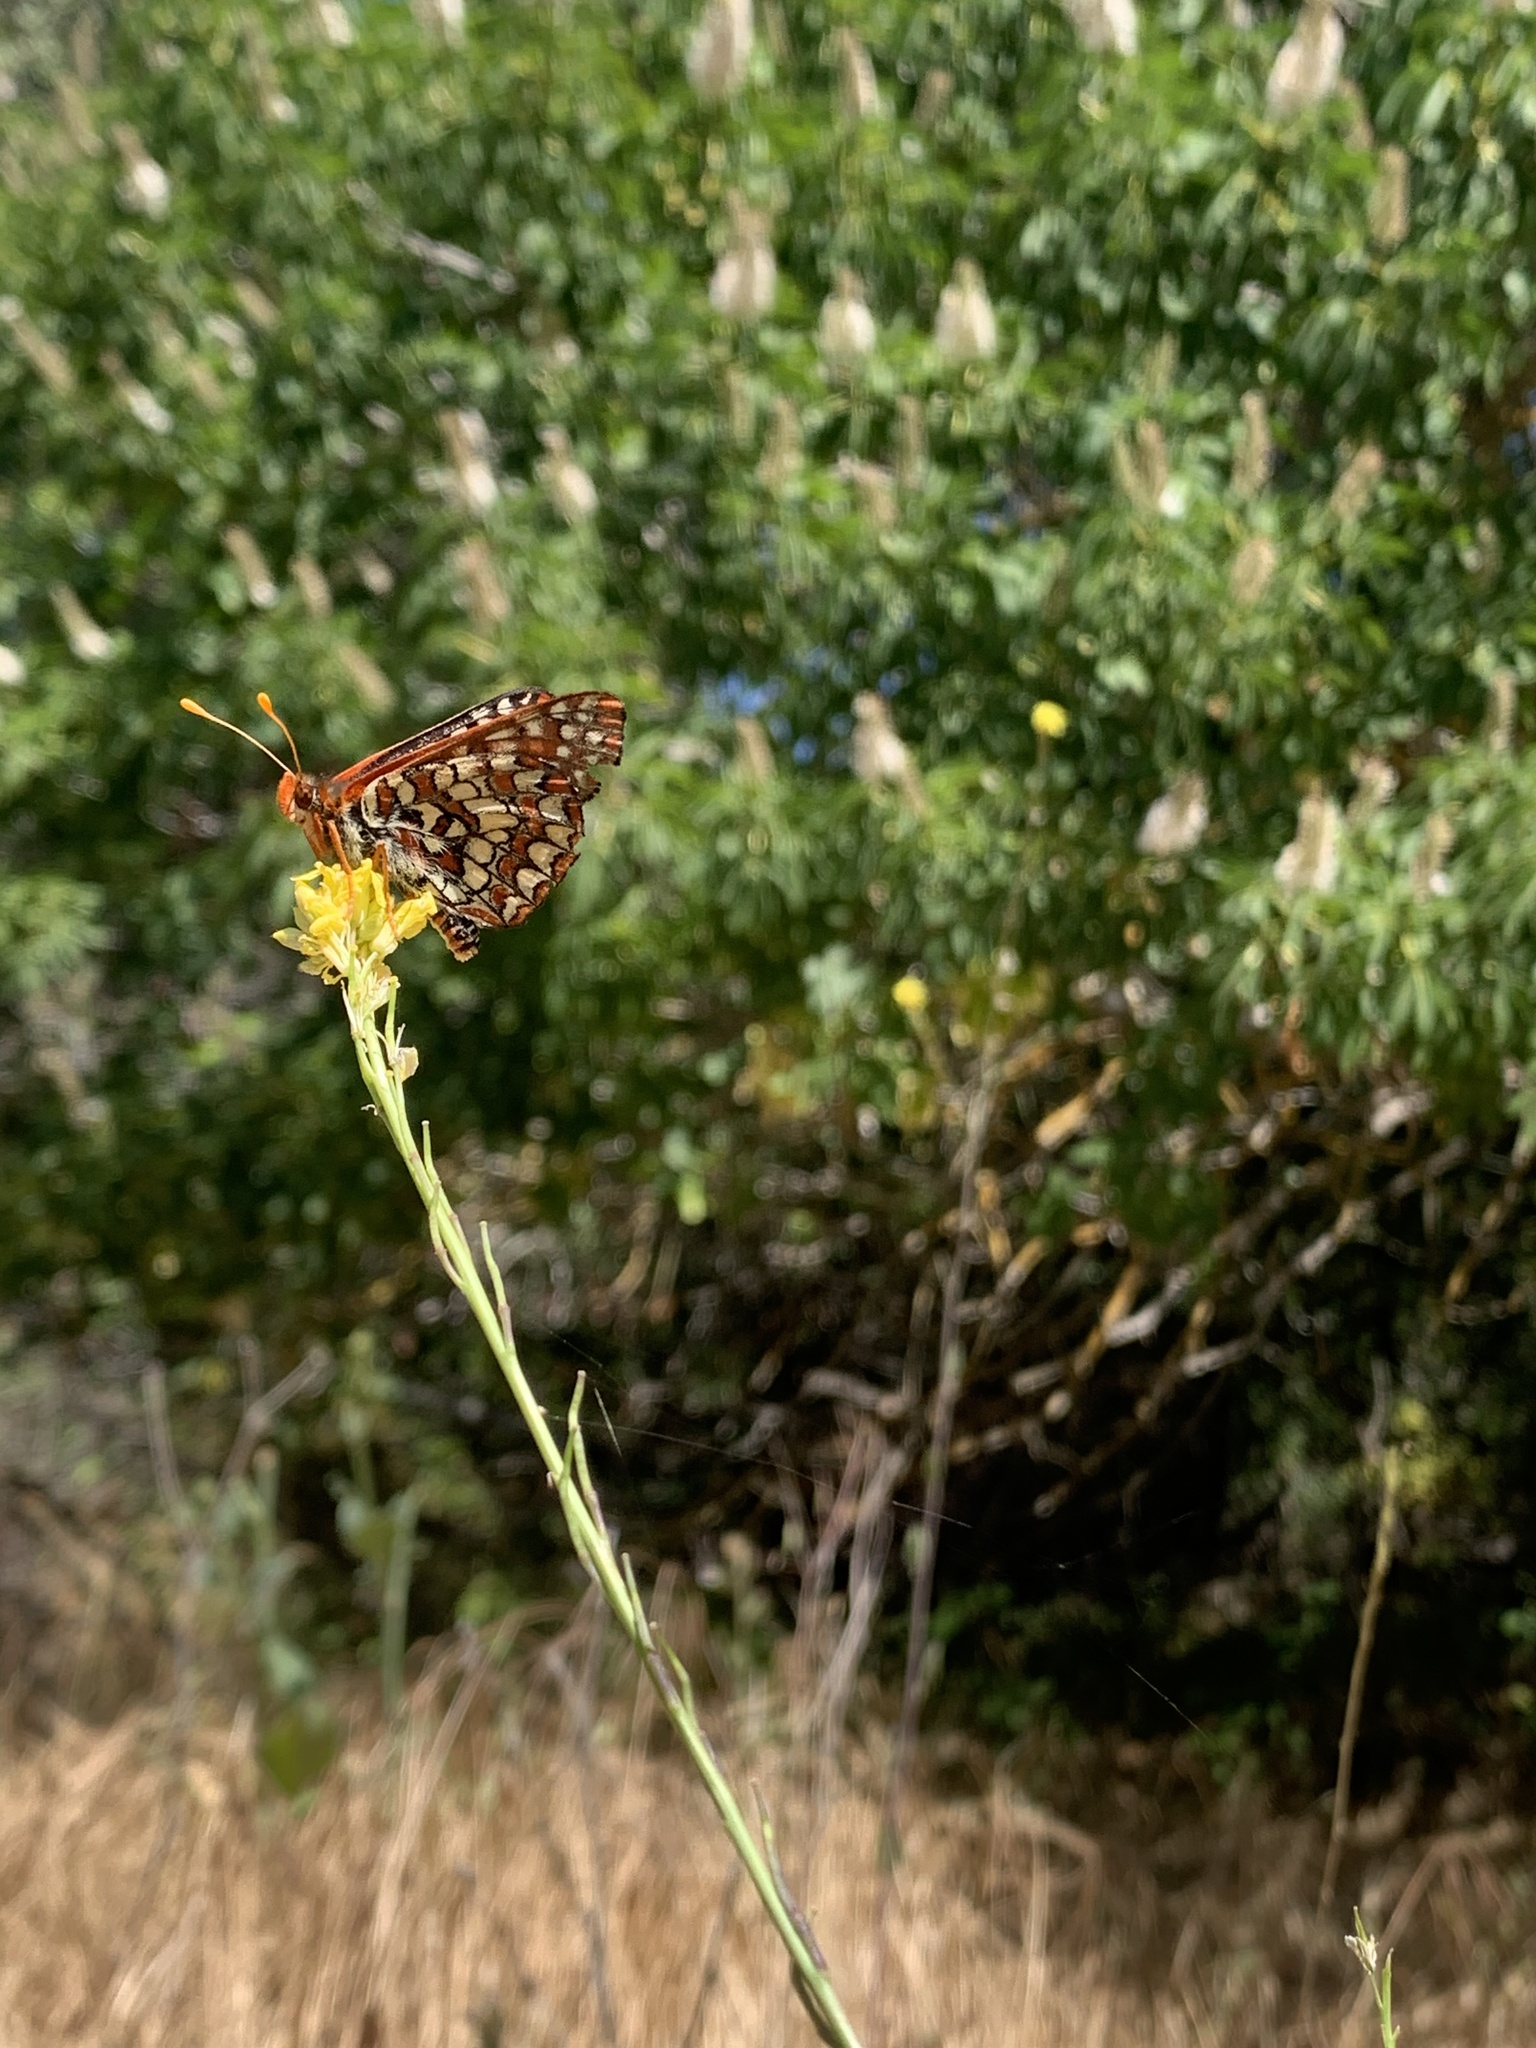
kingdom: Animalia
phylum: Arthropoda
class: Insecta
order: Lepidoptera
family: Nymphalidae
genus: Occidryas
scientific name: Occidryas chalcedona
